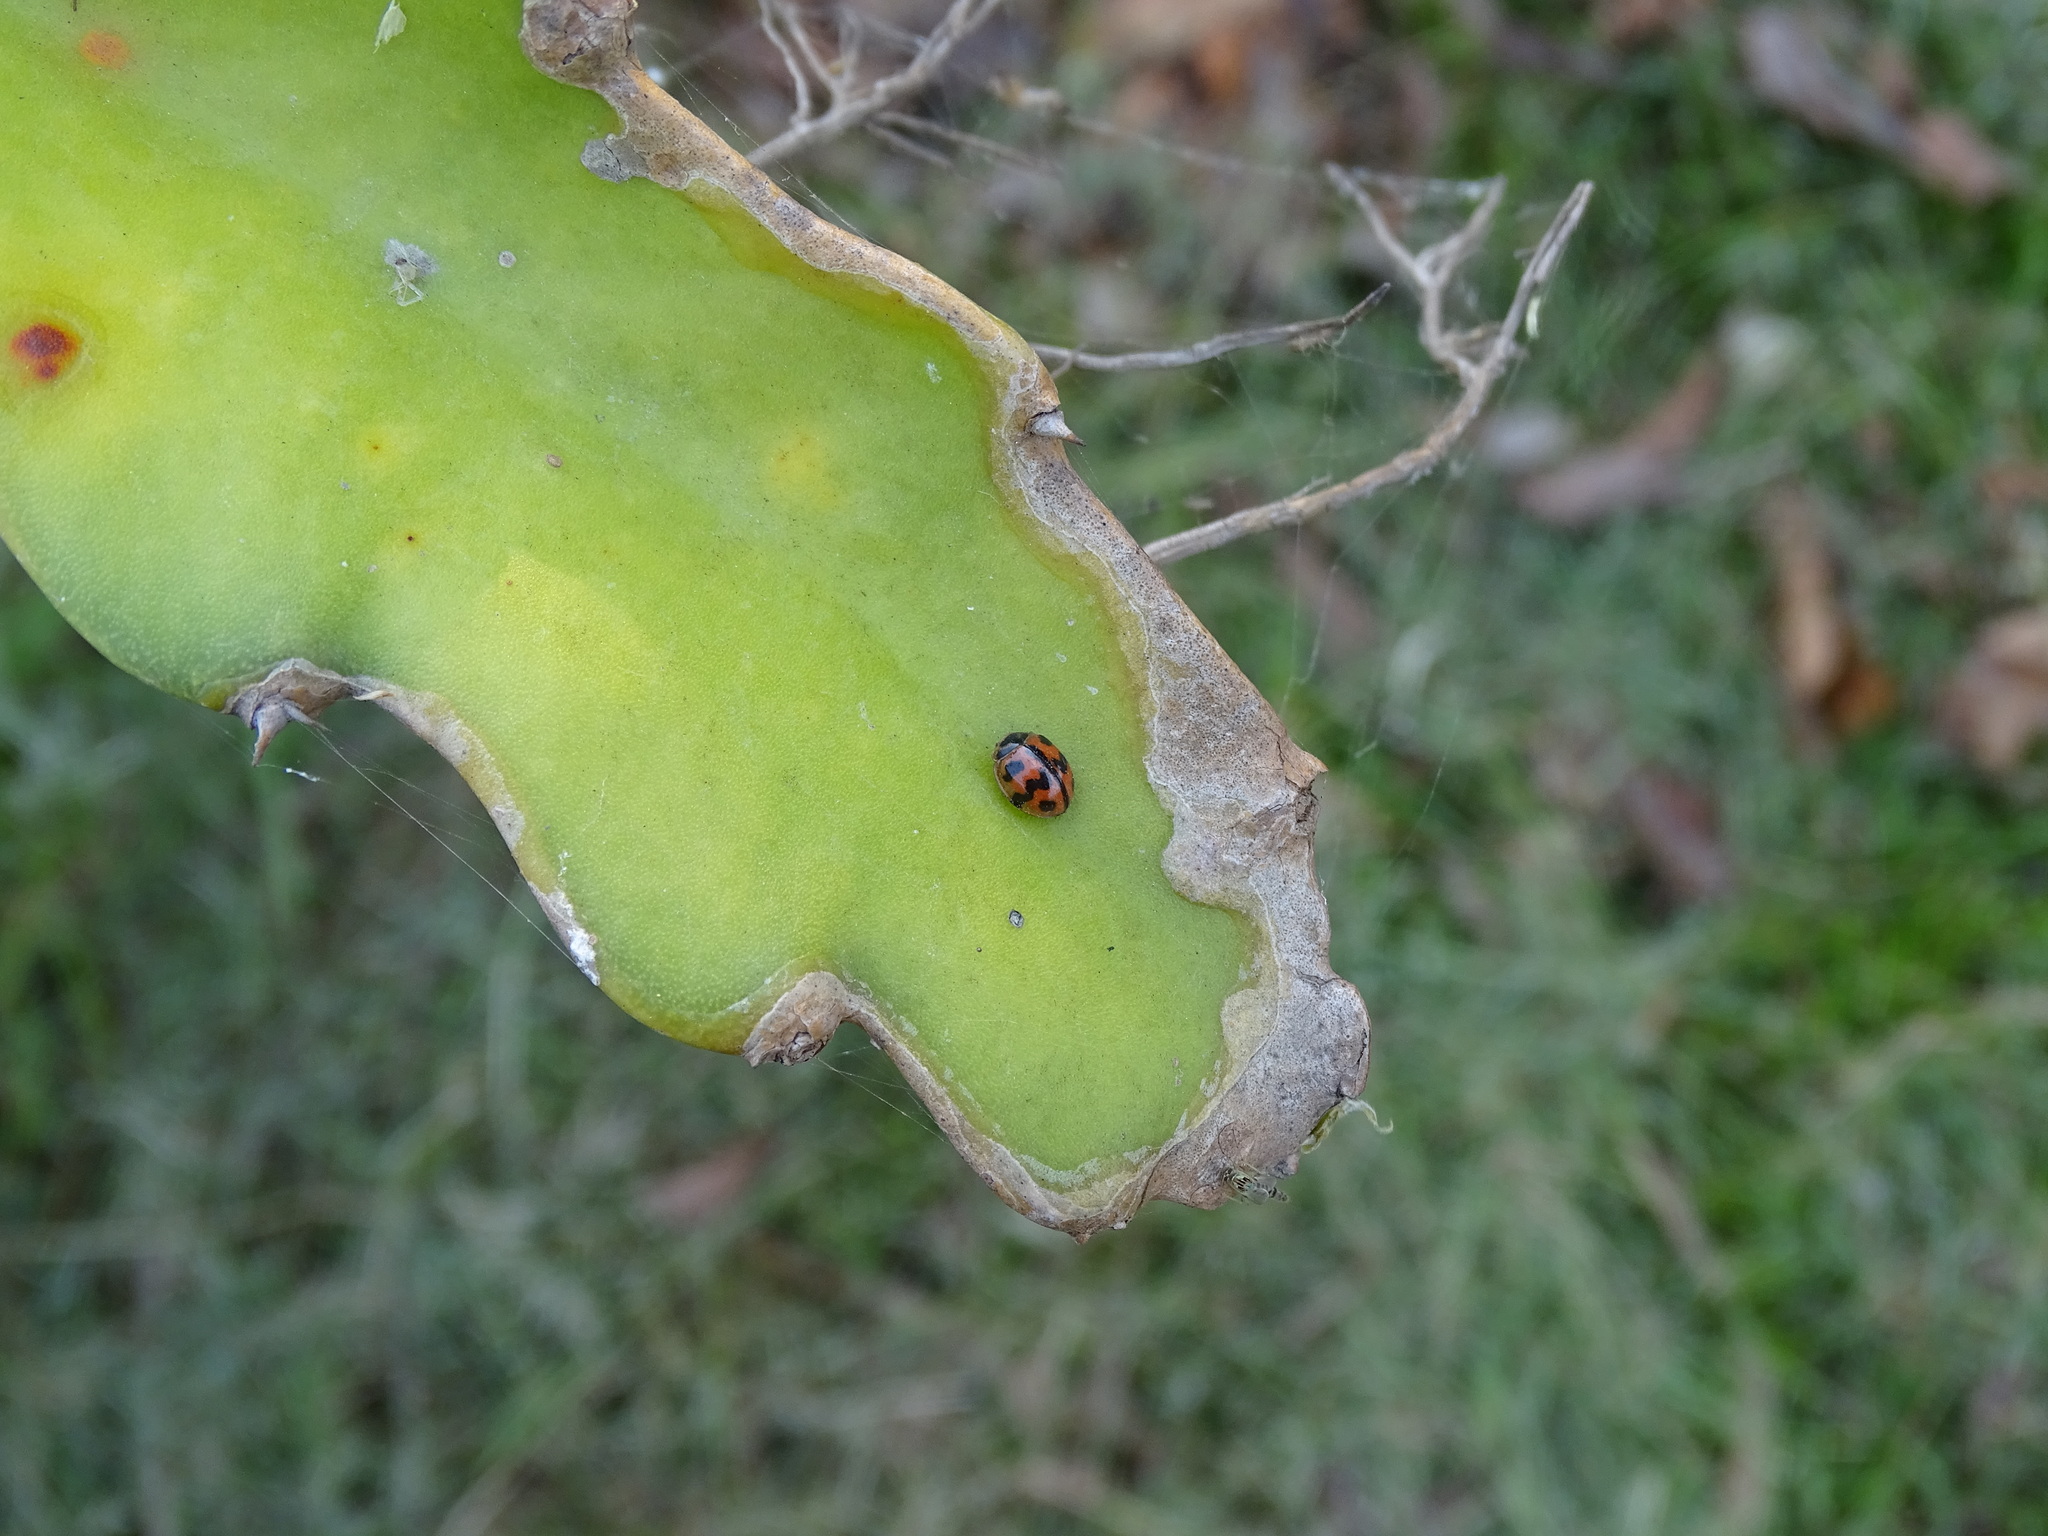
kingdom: Animalia
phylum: Arthropoda
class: Insecta
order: Coleoptera
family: Coccinellidae
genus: Cheilomenes
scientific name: Cheilomenes sexmaculata
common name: Ladybird beetle
